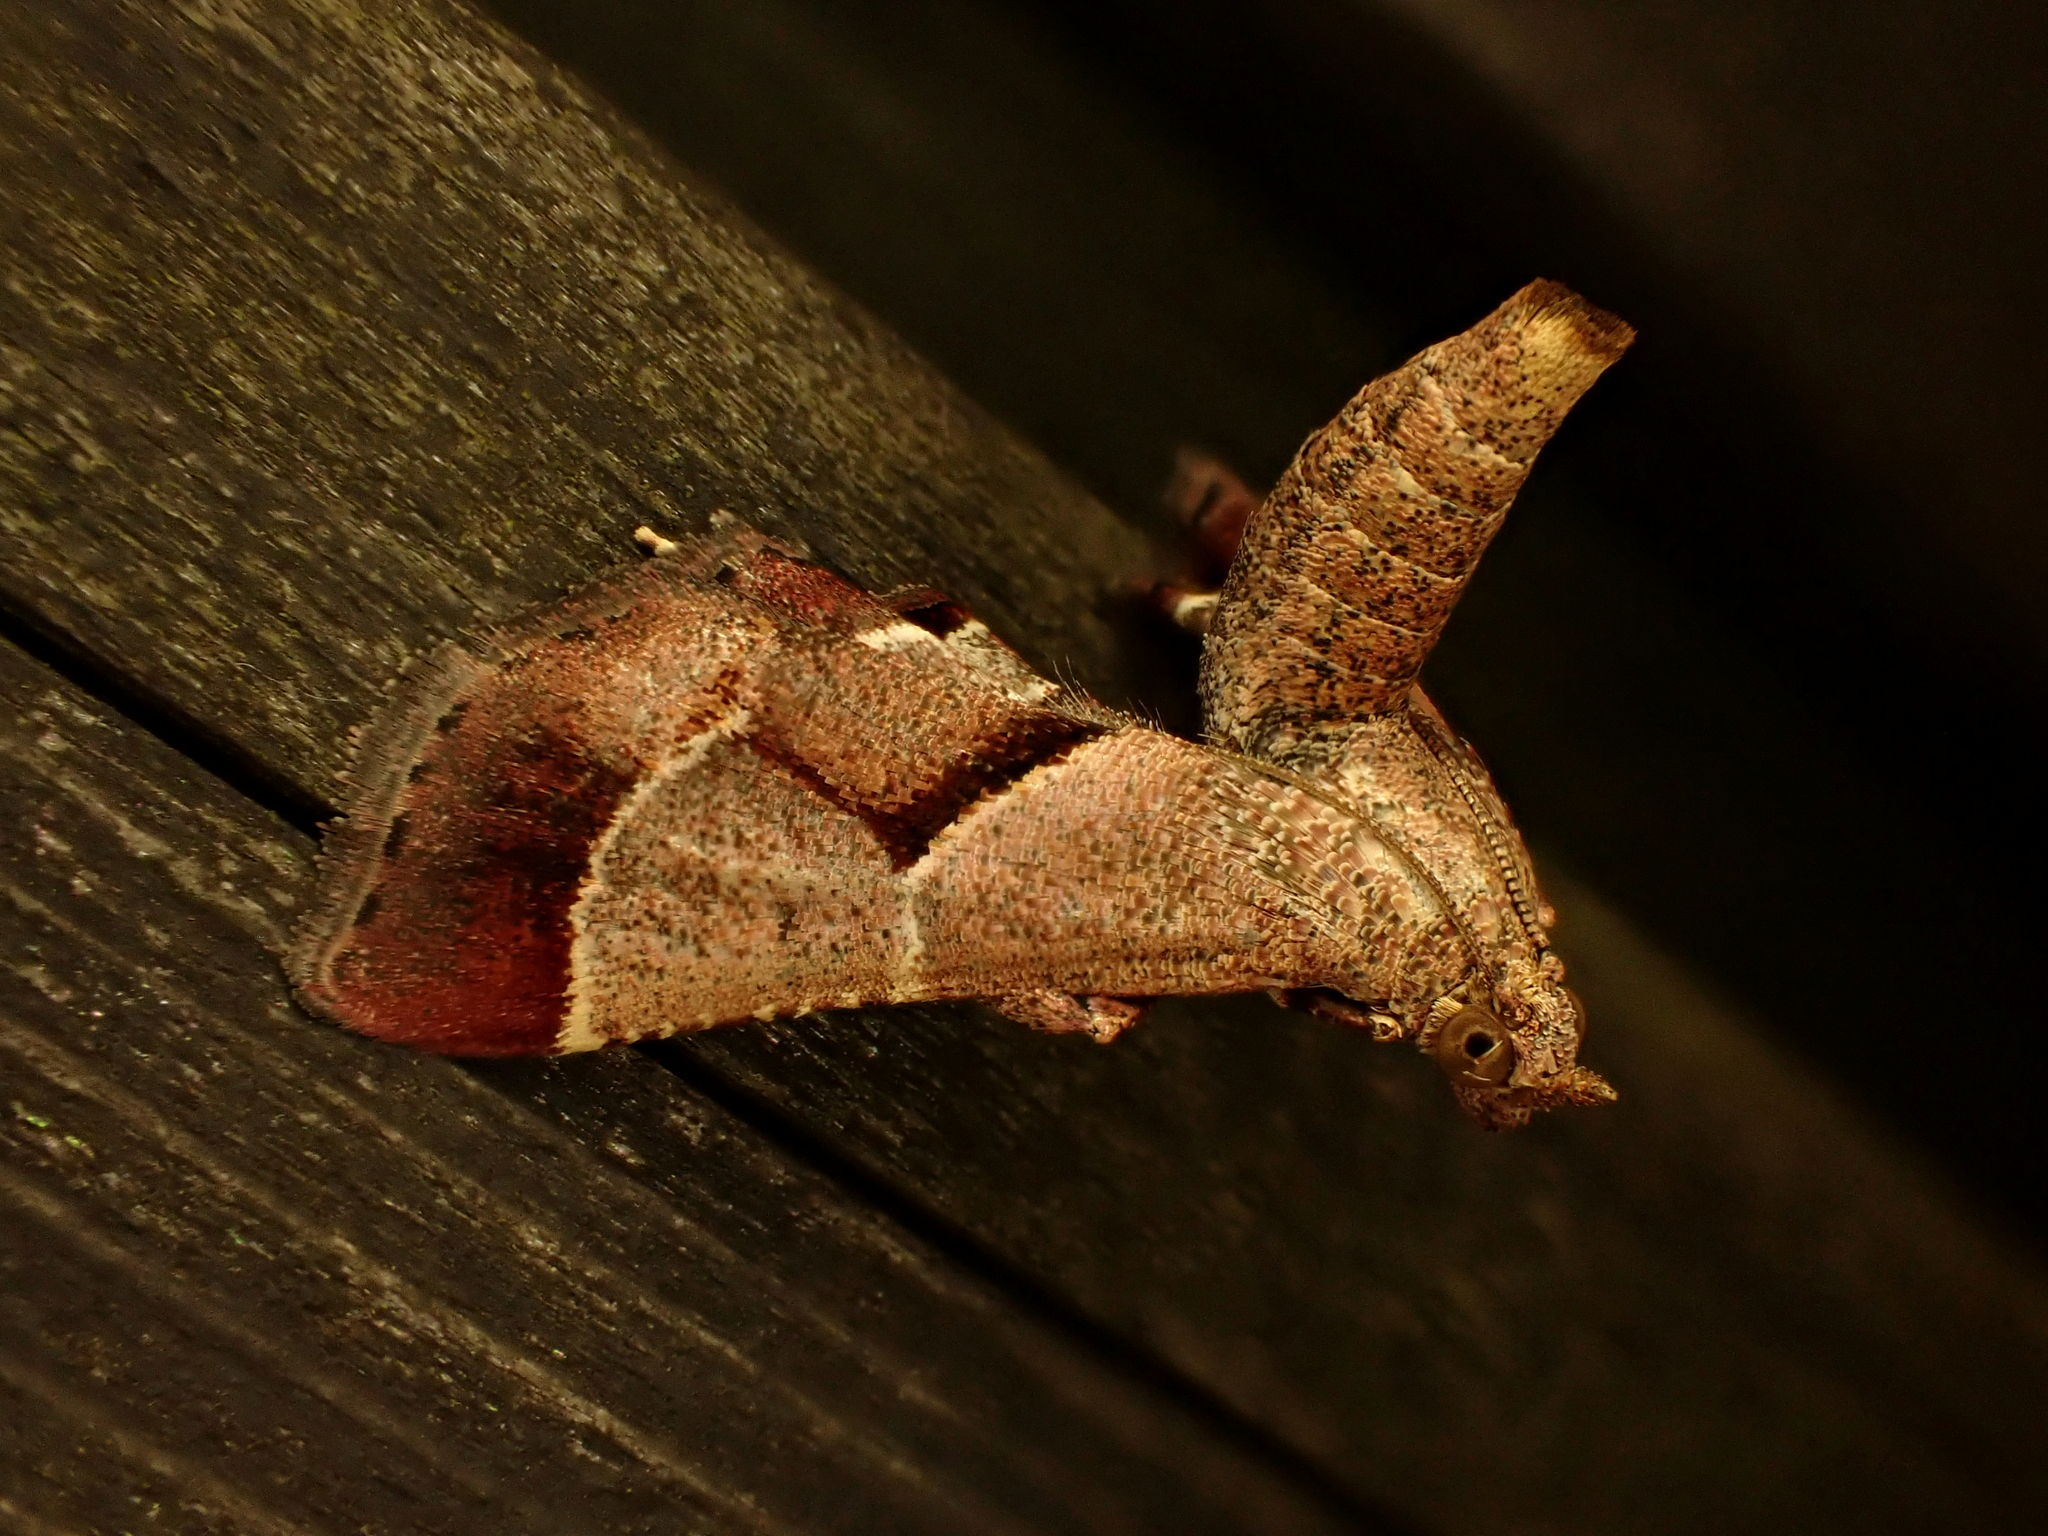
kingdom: Animalia
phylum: Arthropoda
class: Insecta
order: Lepidoptera
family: Pyralidae
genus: Gauna
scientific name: Gauna aegusalis
